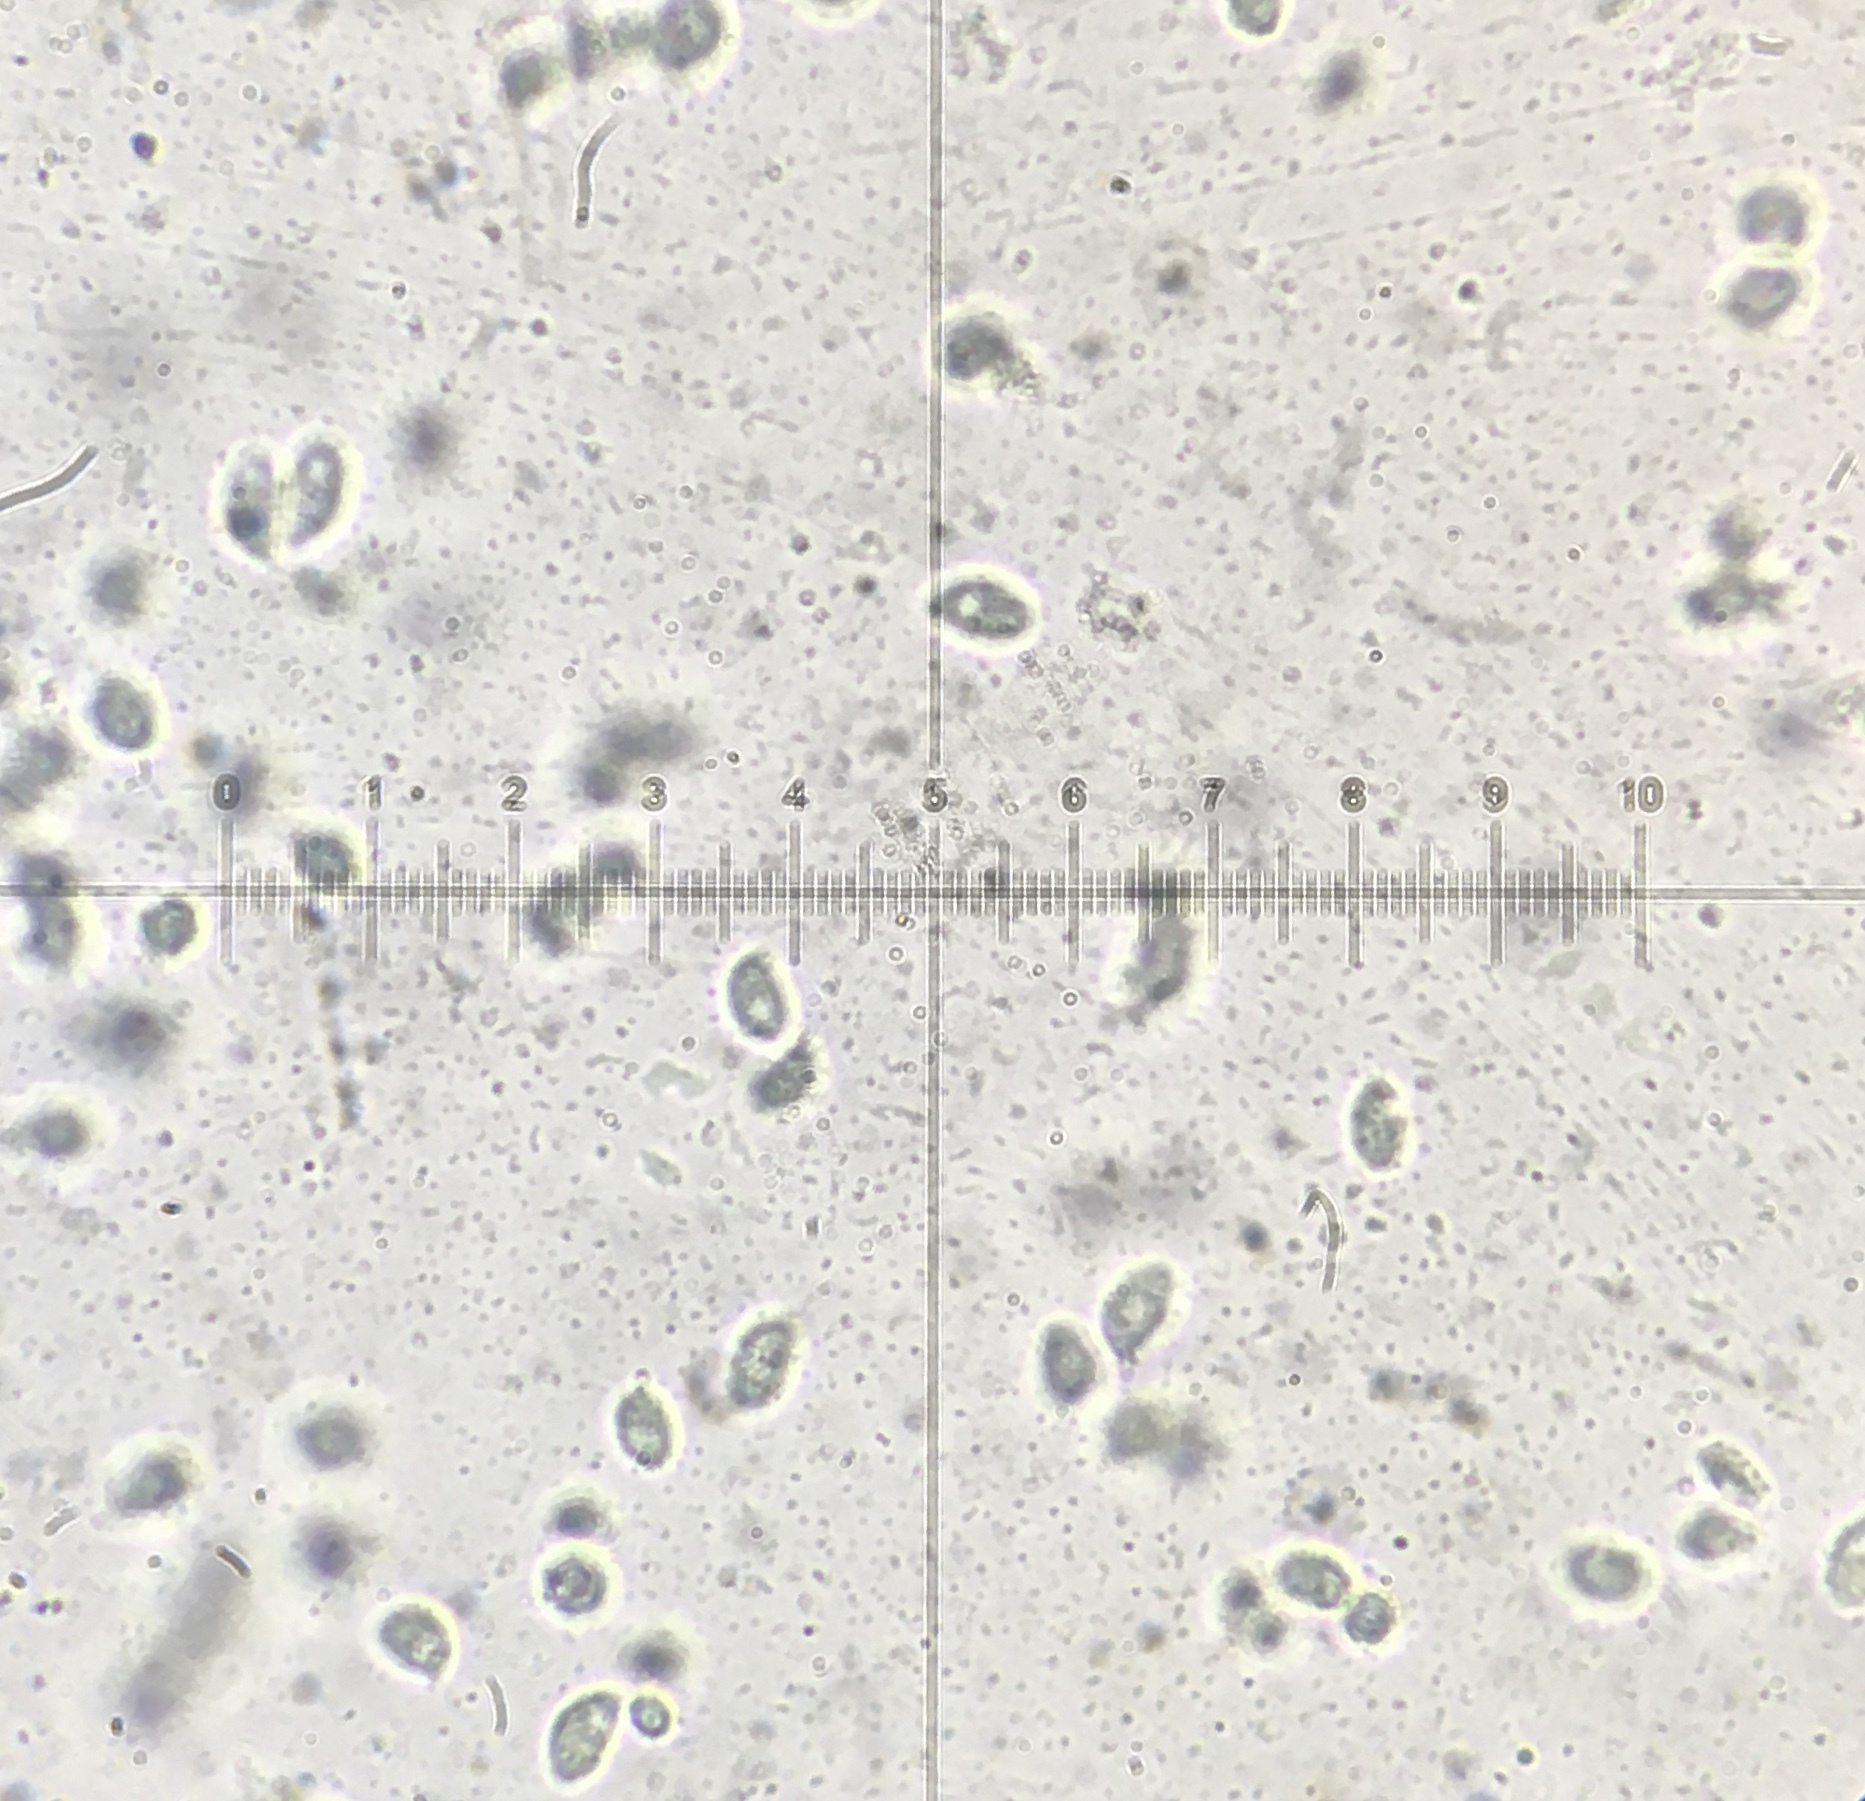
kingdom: Fungi
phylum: Basidiomycota
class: Agaricomycetes
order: Agaricales
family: Tricholomataceae
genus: Clitocybe
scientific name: Clitocybe inflatipes
